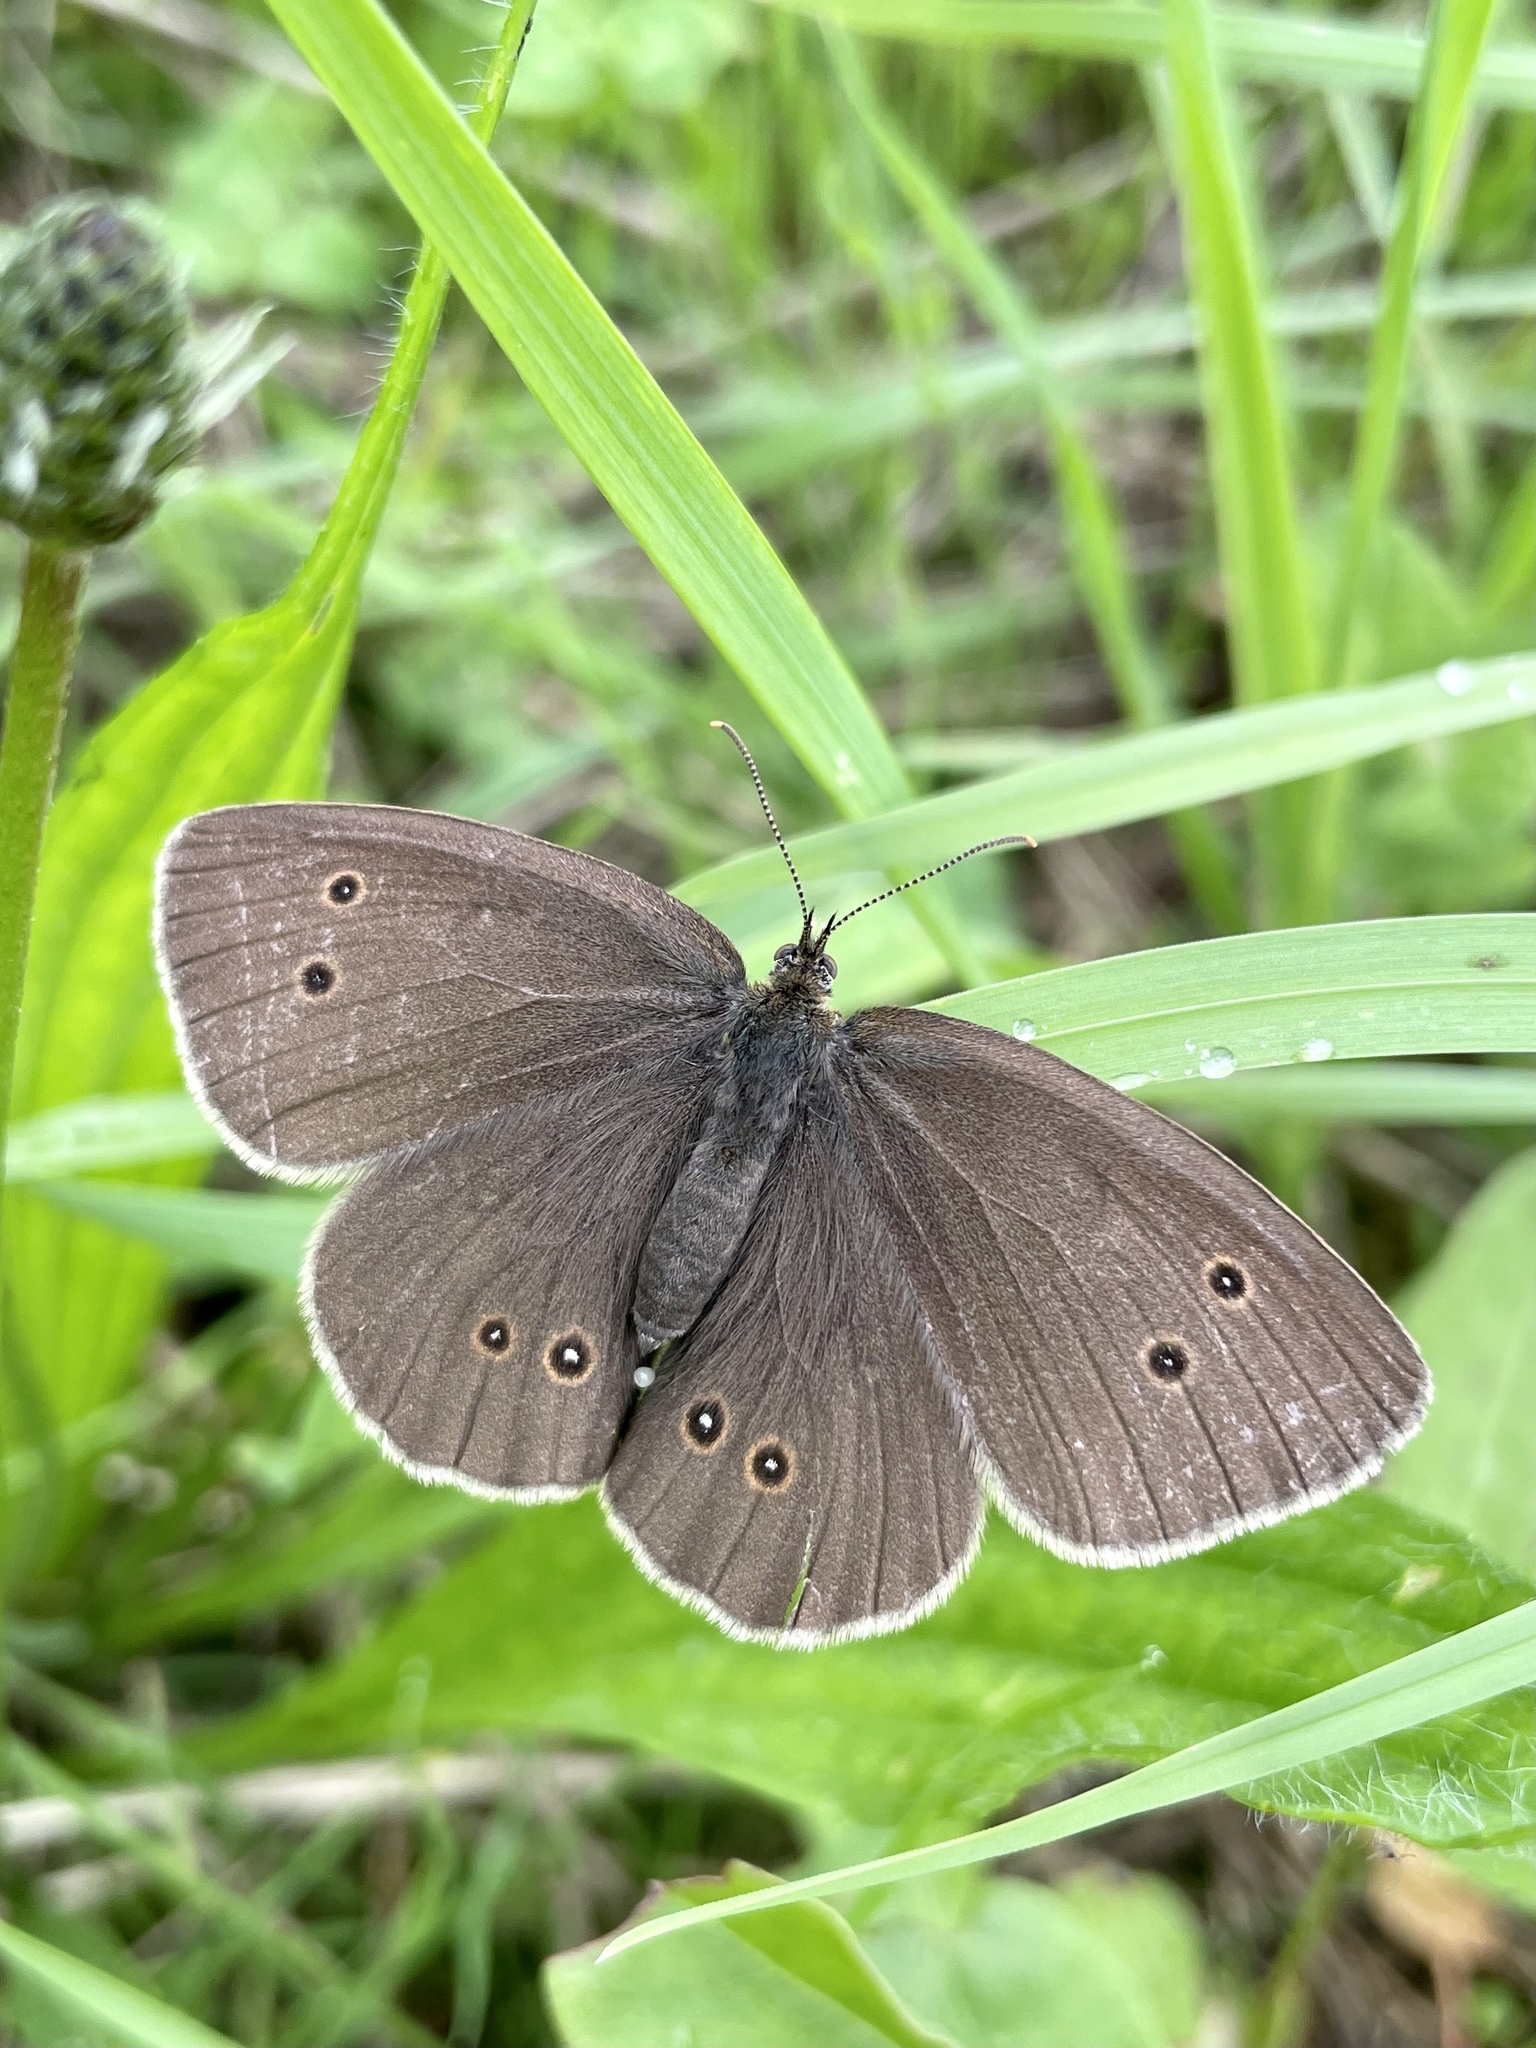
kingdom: Animalia
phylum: Arthropoda
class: Insecta
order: Lepidoptera
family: Nymphalidae
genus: Aphantopus
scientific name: Aphantopus hyperantus
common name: Ringlet
